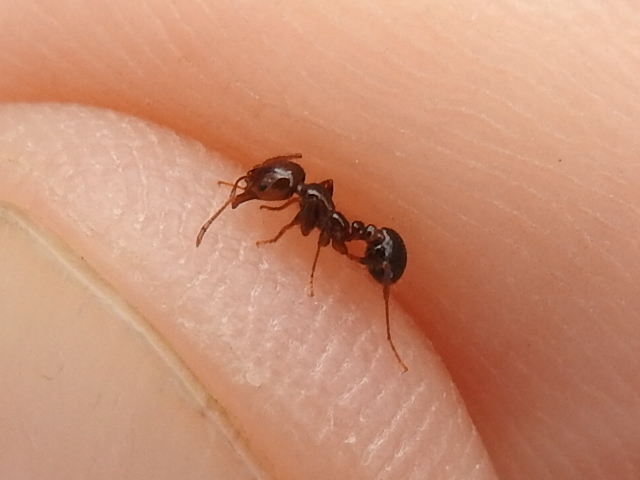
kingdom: Animalia
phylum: Arthropoda
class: Insecta
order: Hymenoptera
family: Formicidae
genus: Solenopsis
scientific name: Solenopsis invicta
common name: Red imported fire ant
